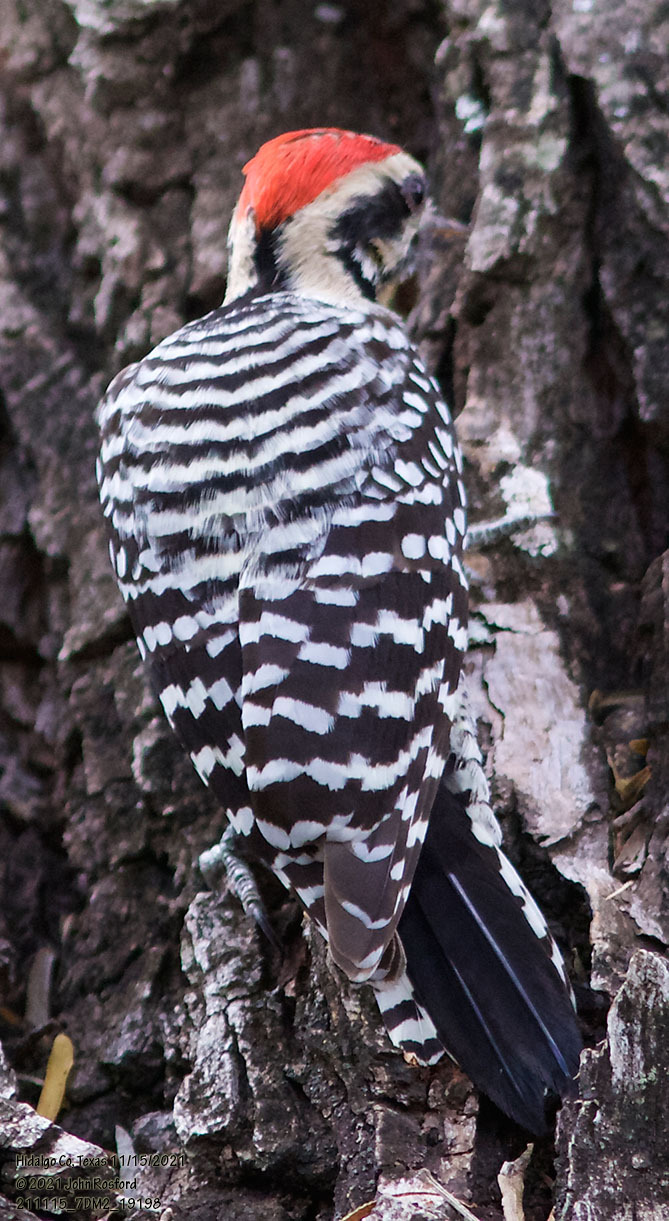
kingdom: Animalia
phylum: Chordata
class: Aves
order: Piciformes
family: Picidae
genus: Dryobates
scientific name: Dryobates scalaris
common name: Ladder-backed woodpecker
